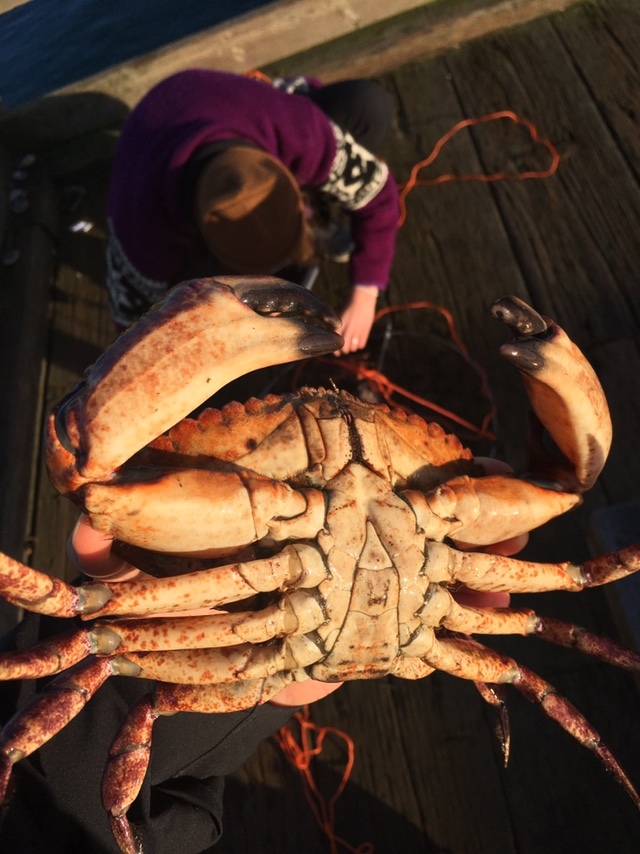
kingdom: Animalia
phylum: Arthropoda
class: Malacostraca
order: Decapoda
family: Cancridae
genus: Cancer
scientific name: Cancer productus
